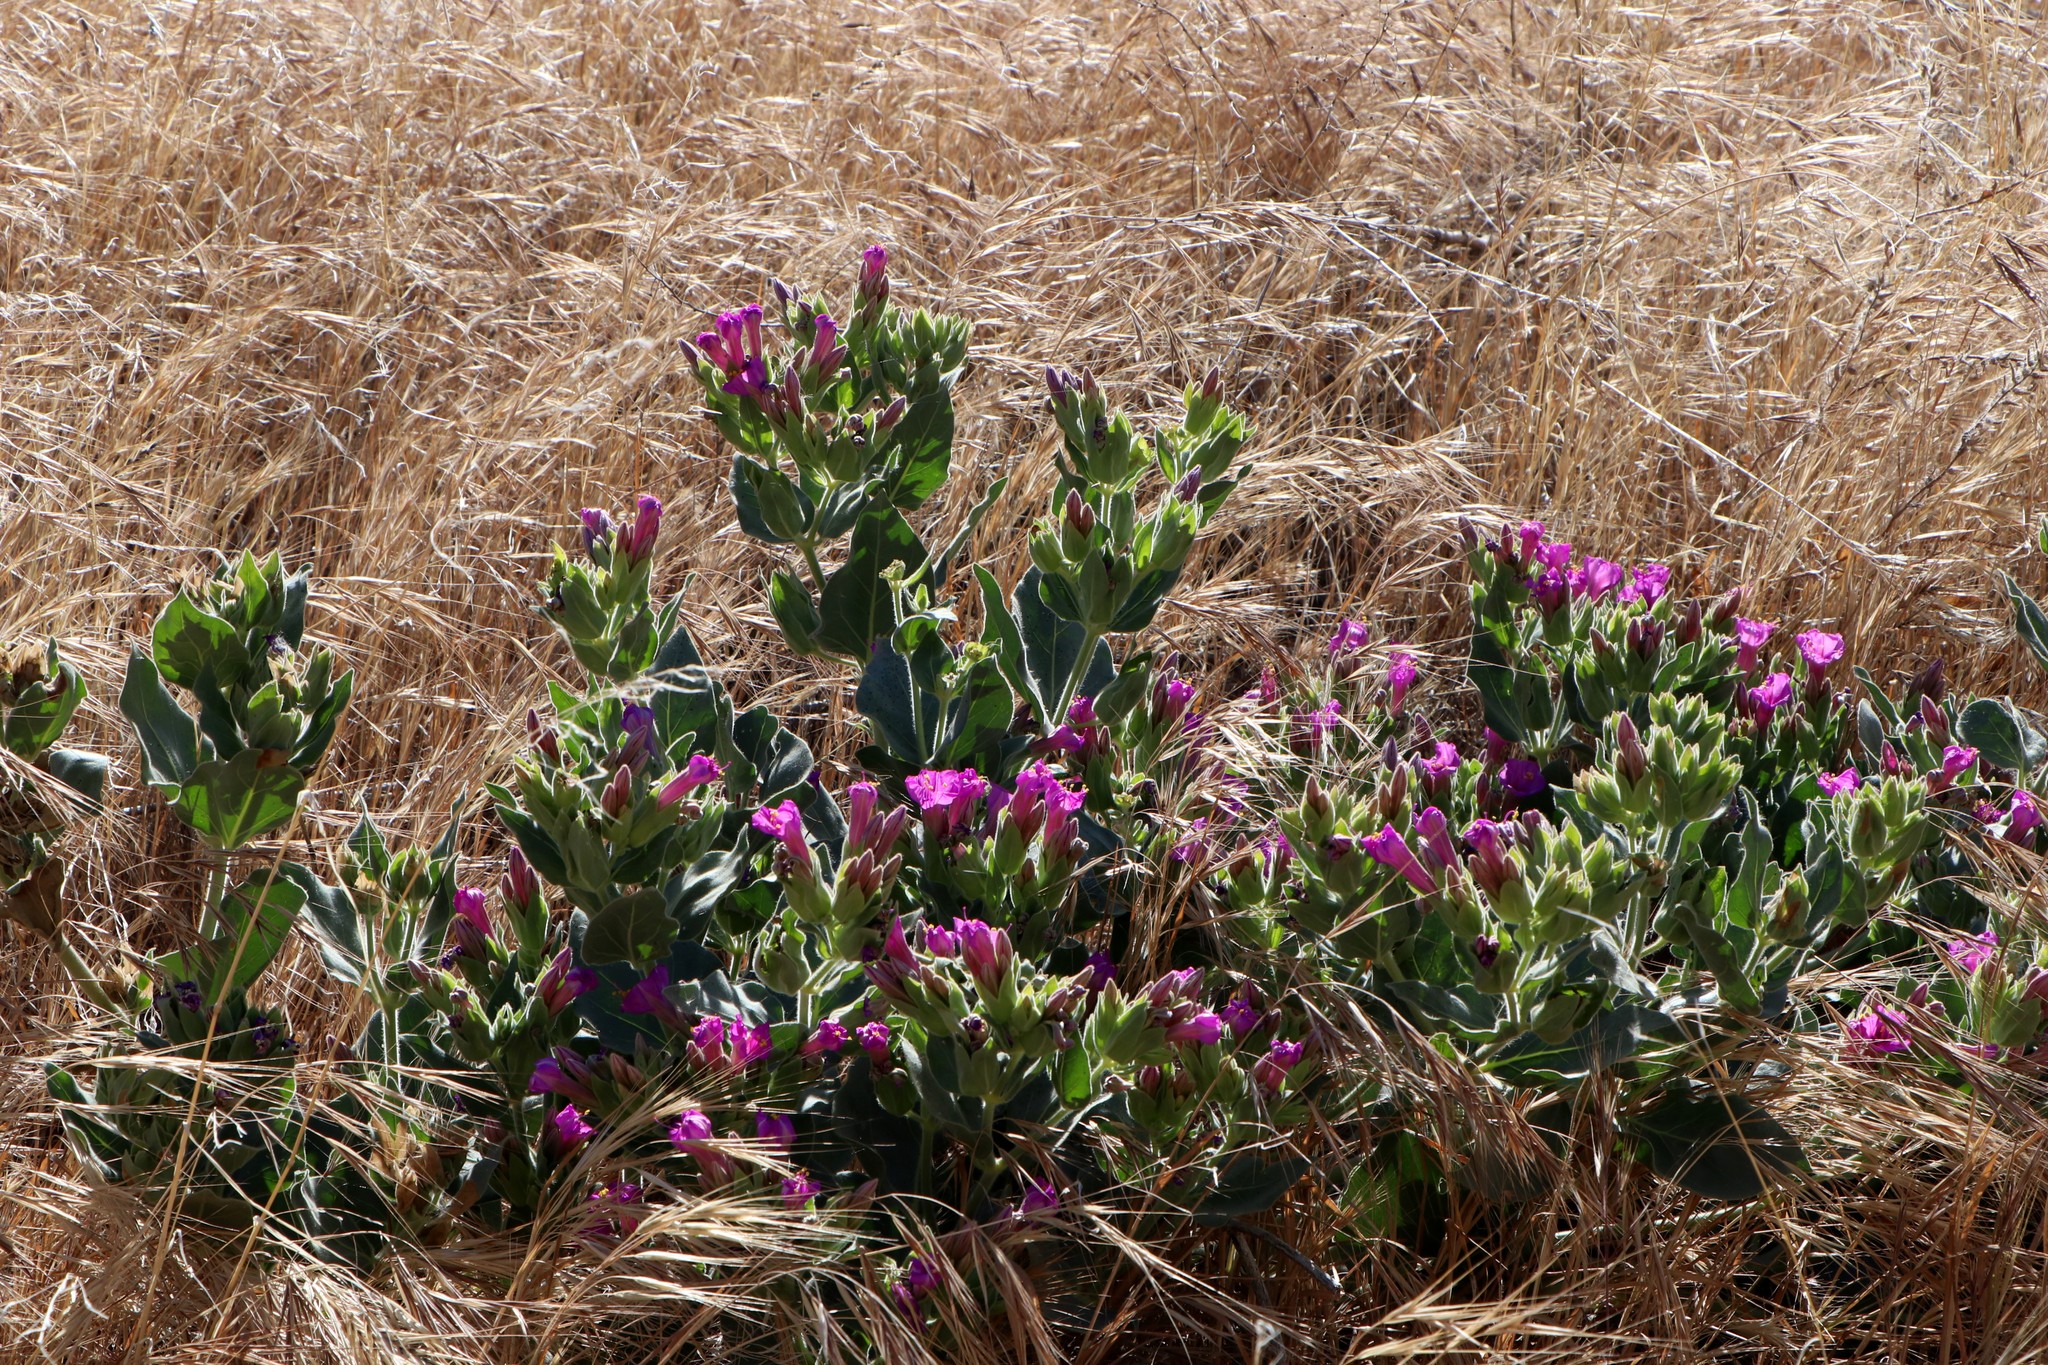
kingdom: Plantae
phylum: Tracheophyta
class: Magnoliopsida
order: Caryophyllales
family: Nyctaginaceae
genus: Mirabilis
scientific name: Mirabilis multiflora
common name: Froebel's four-o'clock
